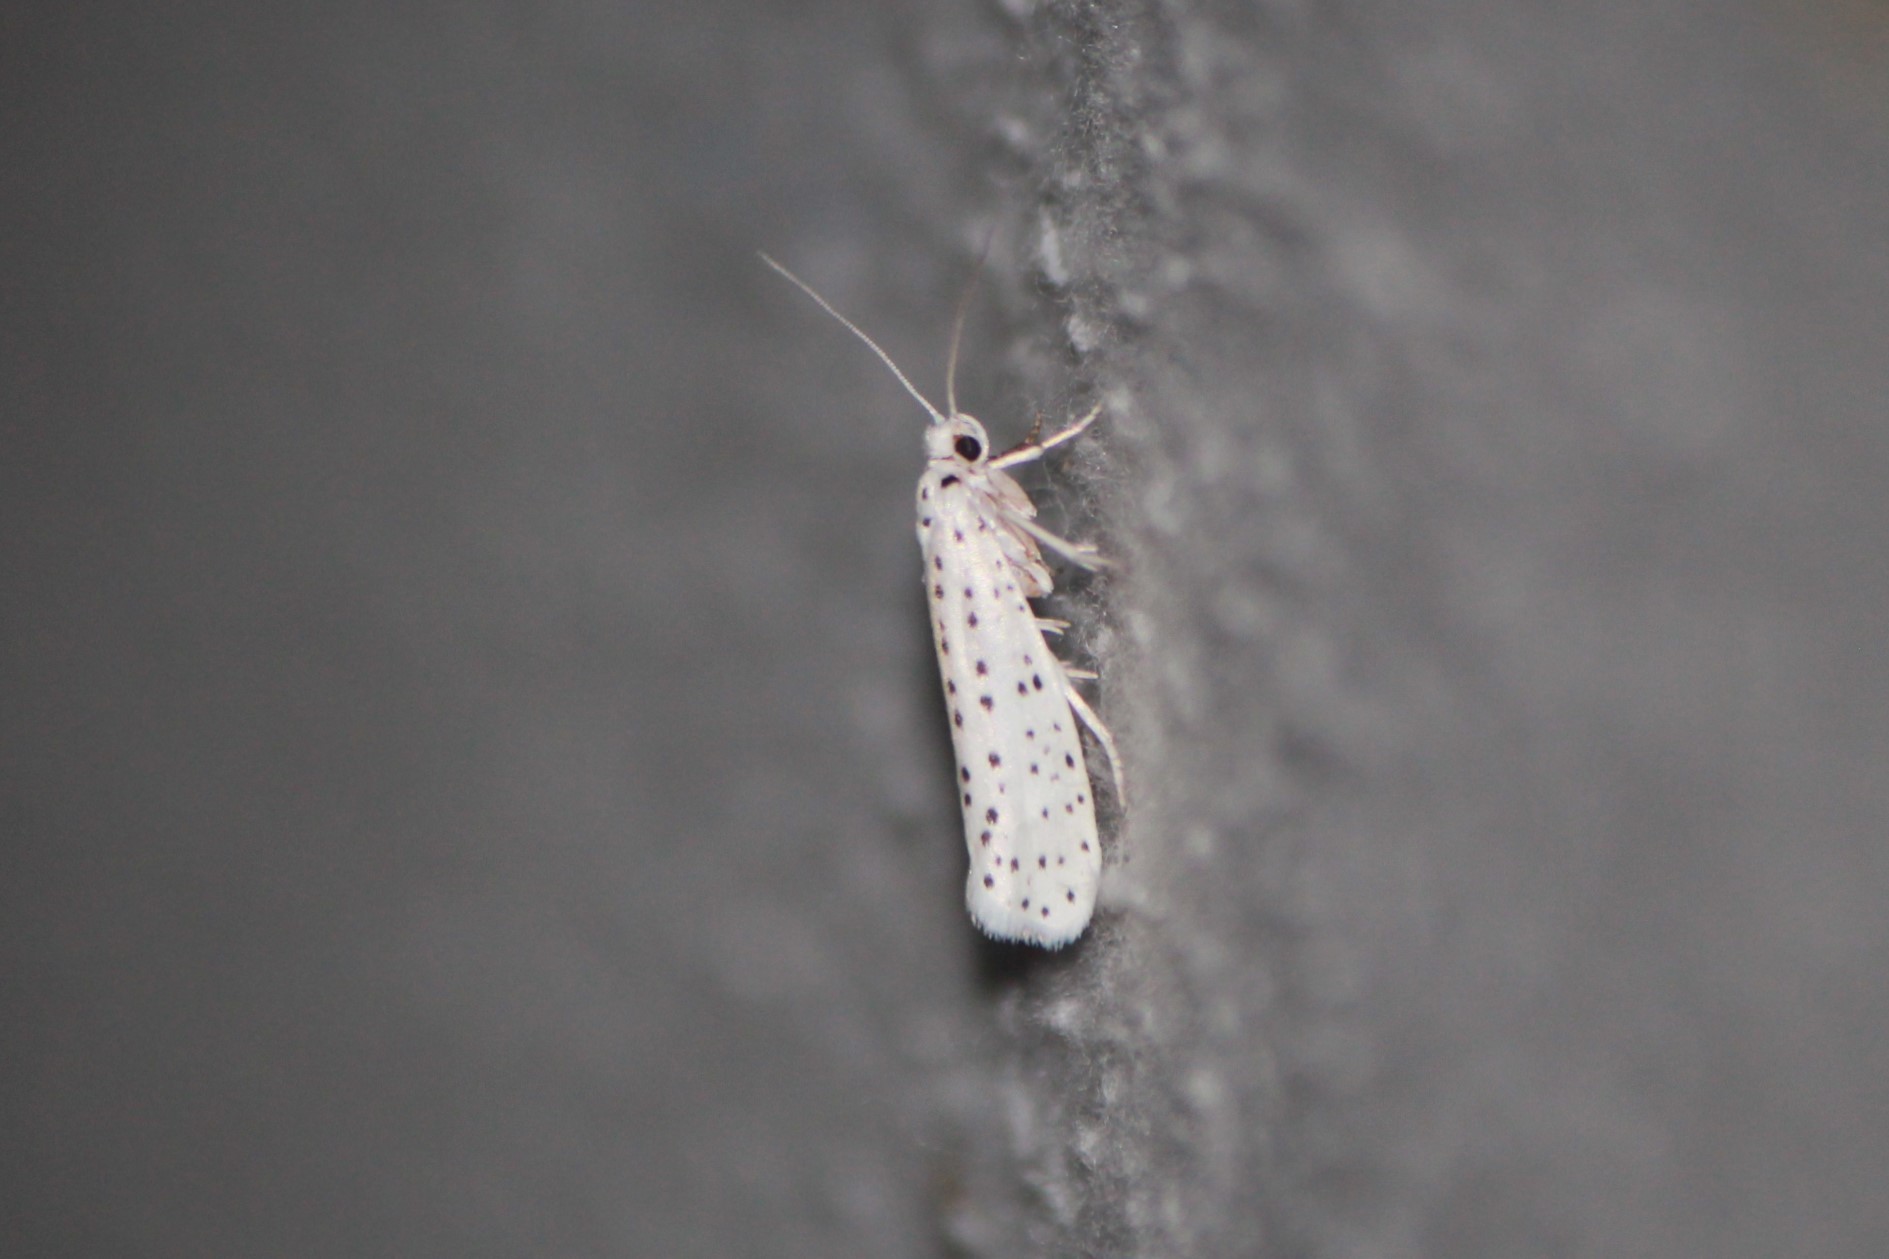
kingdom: Animalia
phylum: Arthropoda
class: Insecta
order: Lepidoptera
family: Yponomeutidae
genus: Yponomeuta
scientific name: Yponomeuta multipunctella
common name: American ermine moth
